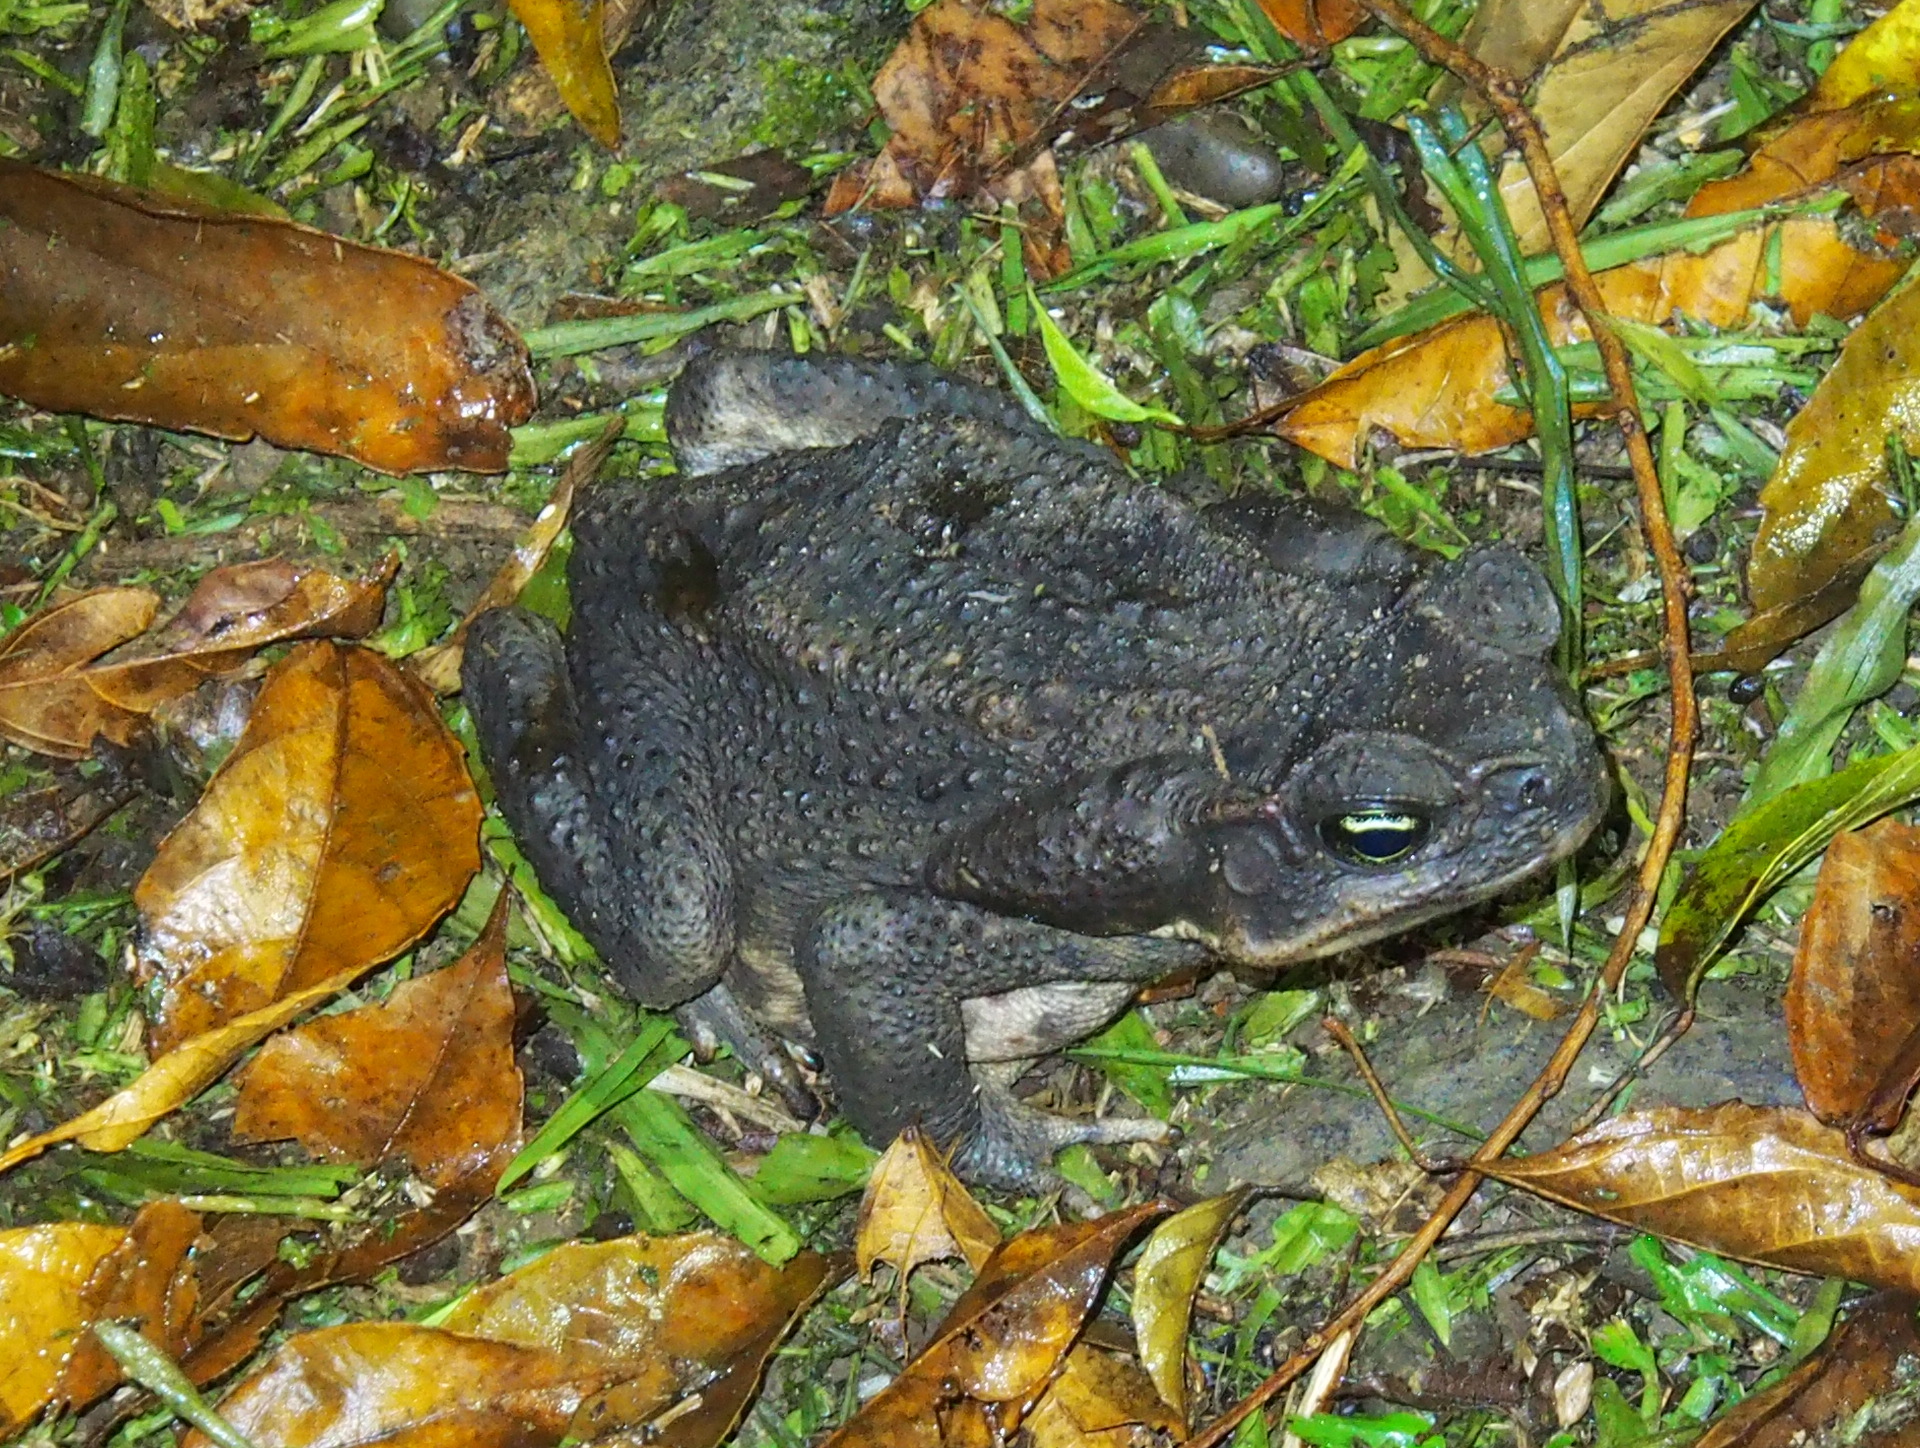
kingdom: Animalia
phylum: Chordata
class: Amphibia
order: Anura
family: Bufonidae
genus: Rhinella
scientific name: Rhinella horribilis
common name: Mesoamerican cane toad
